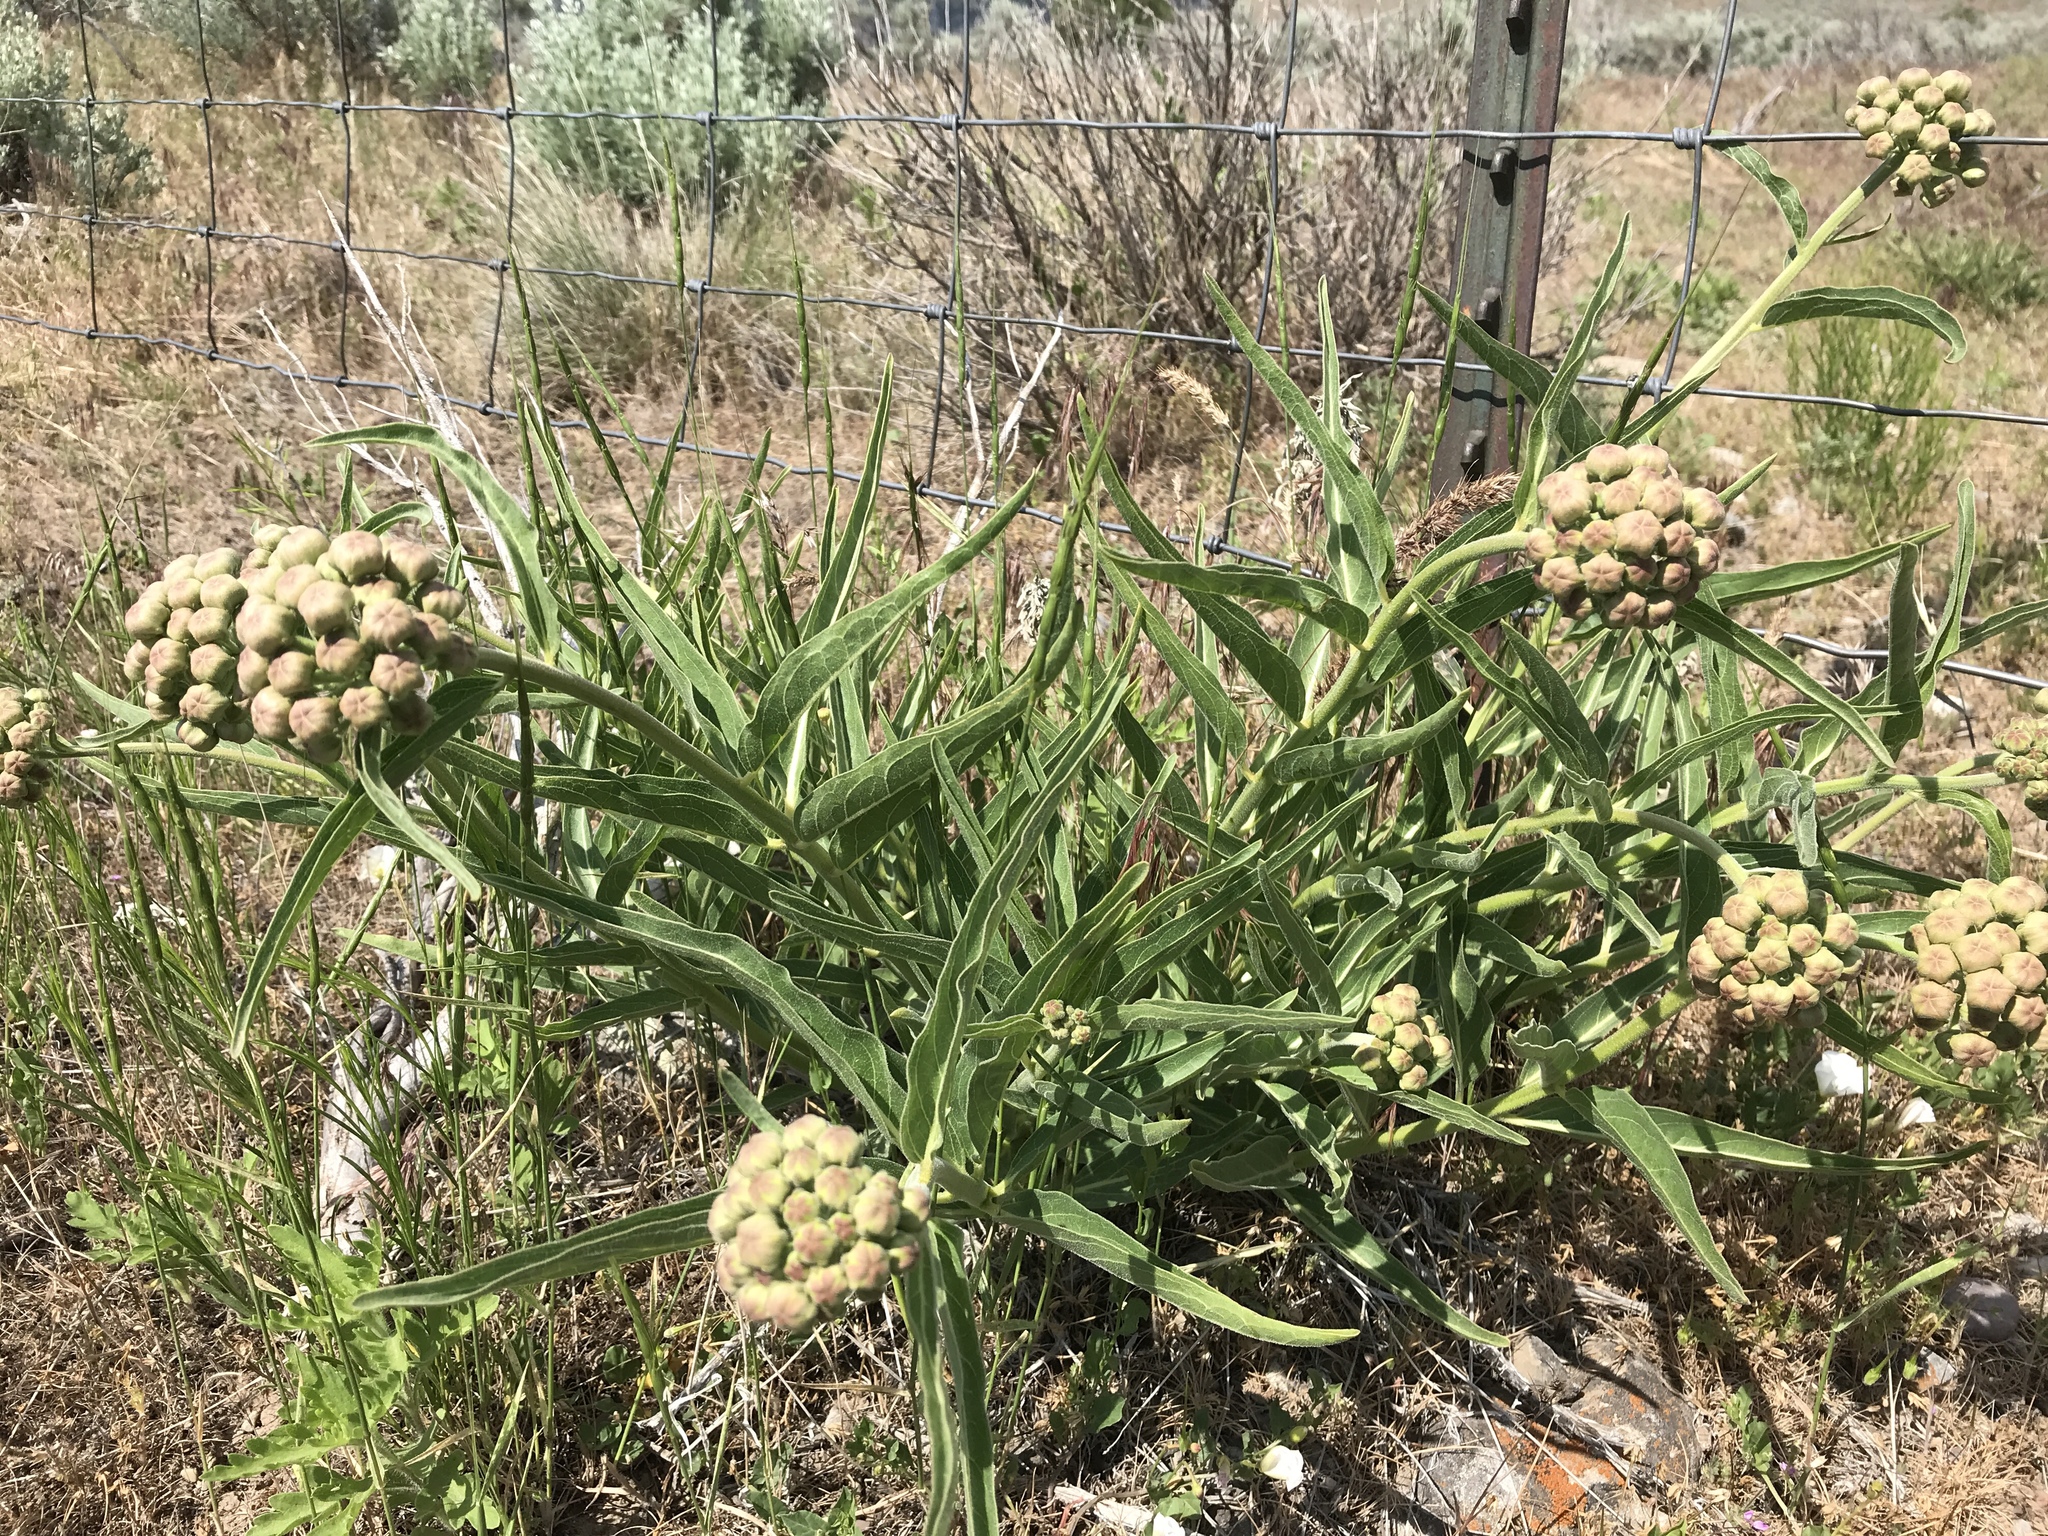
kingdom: Plantae
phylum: Tracheophyta
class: Magnoliopsida
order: Gentianales
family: Apocynaceae
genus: Asclepias
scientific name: Asclepias asperula
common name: Antelope horns
